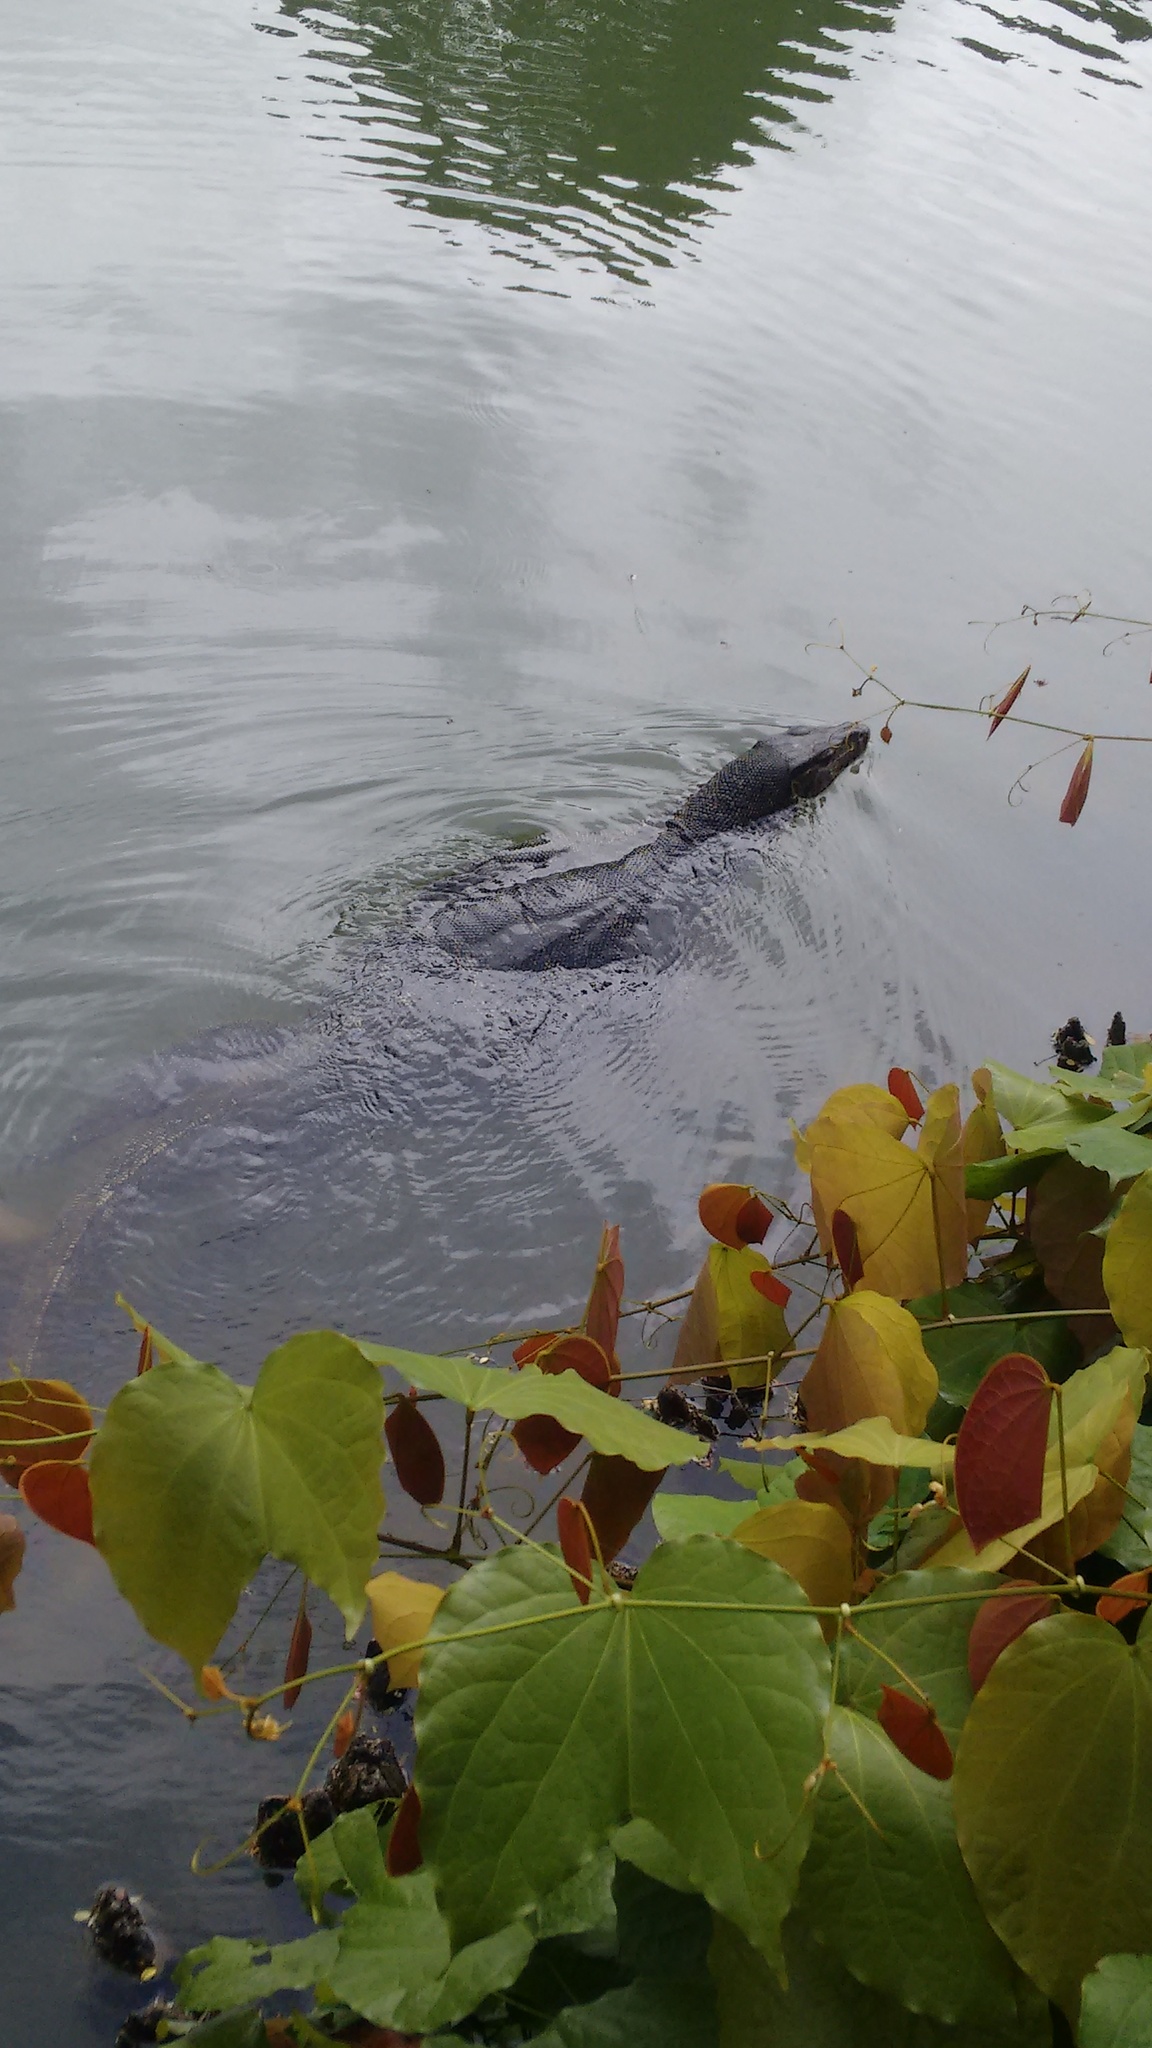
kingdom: Animalia
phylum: Chordata
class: Squamata
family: Varanidae
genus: Varanus
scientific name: Varanus salvator
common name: Common water monitor
